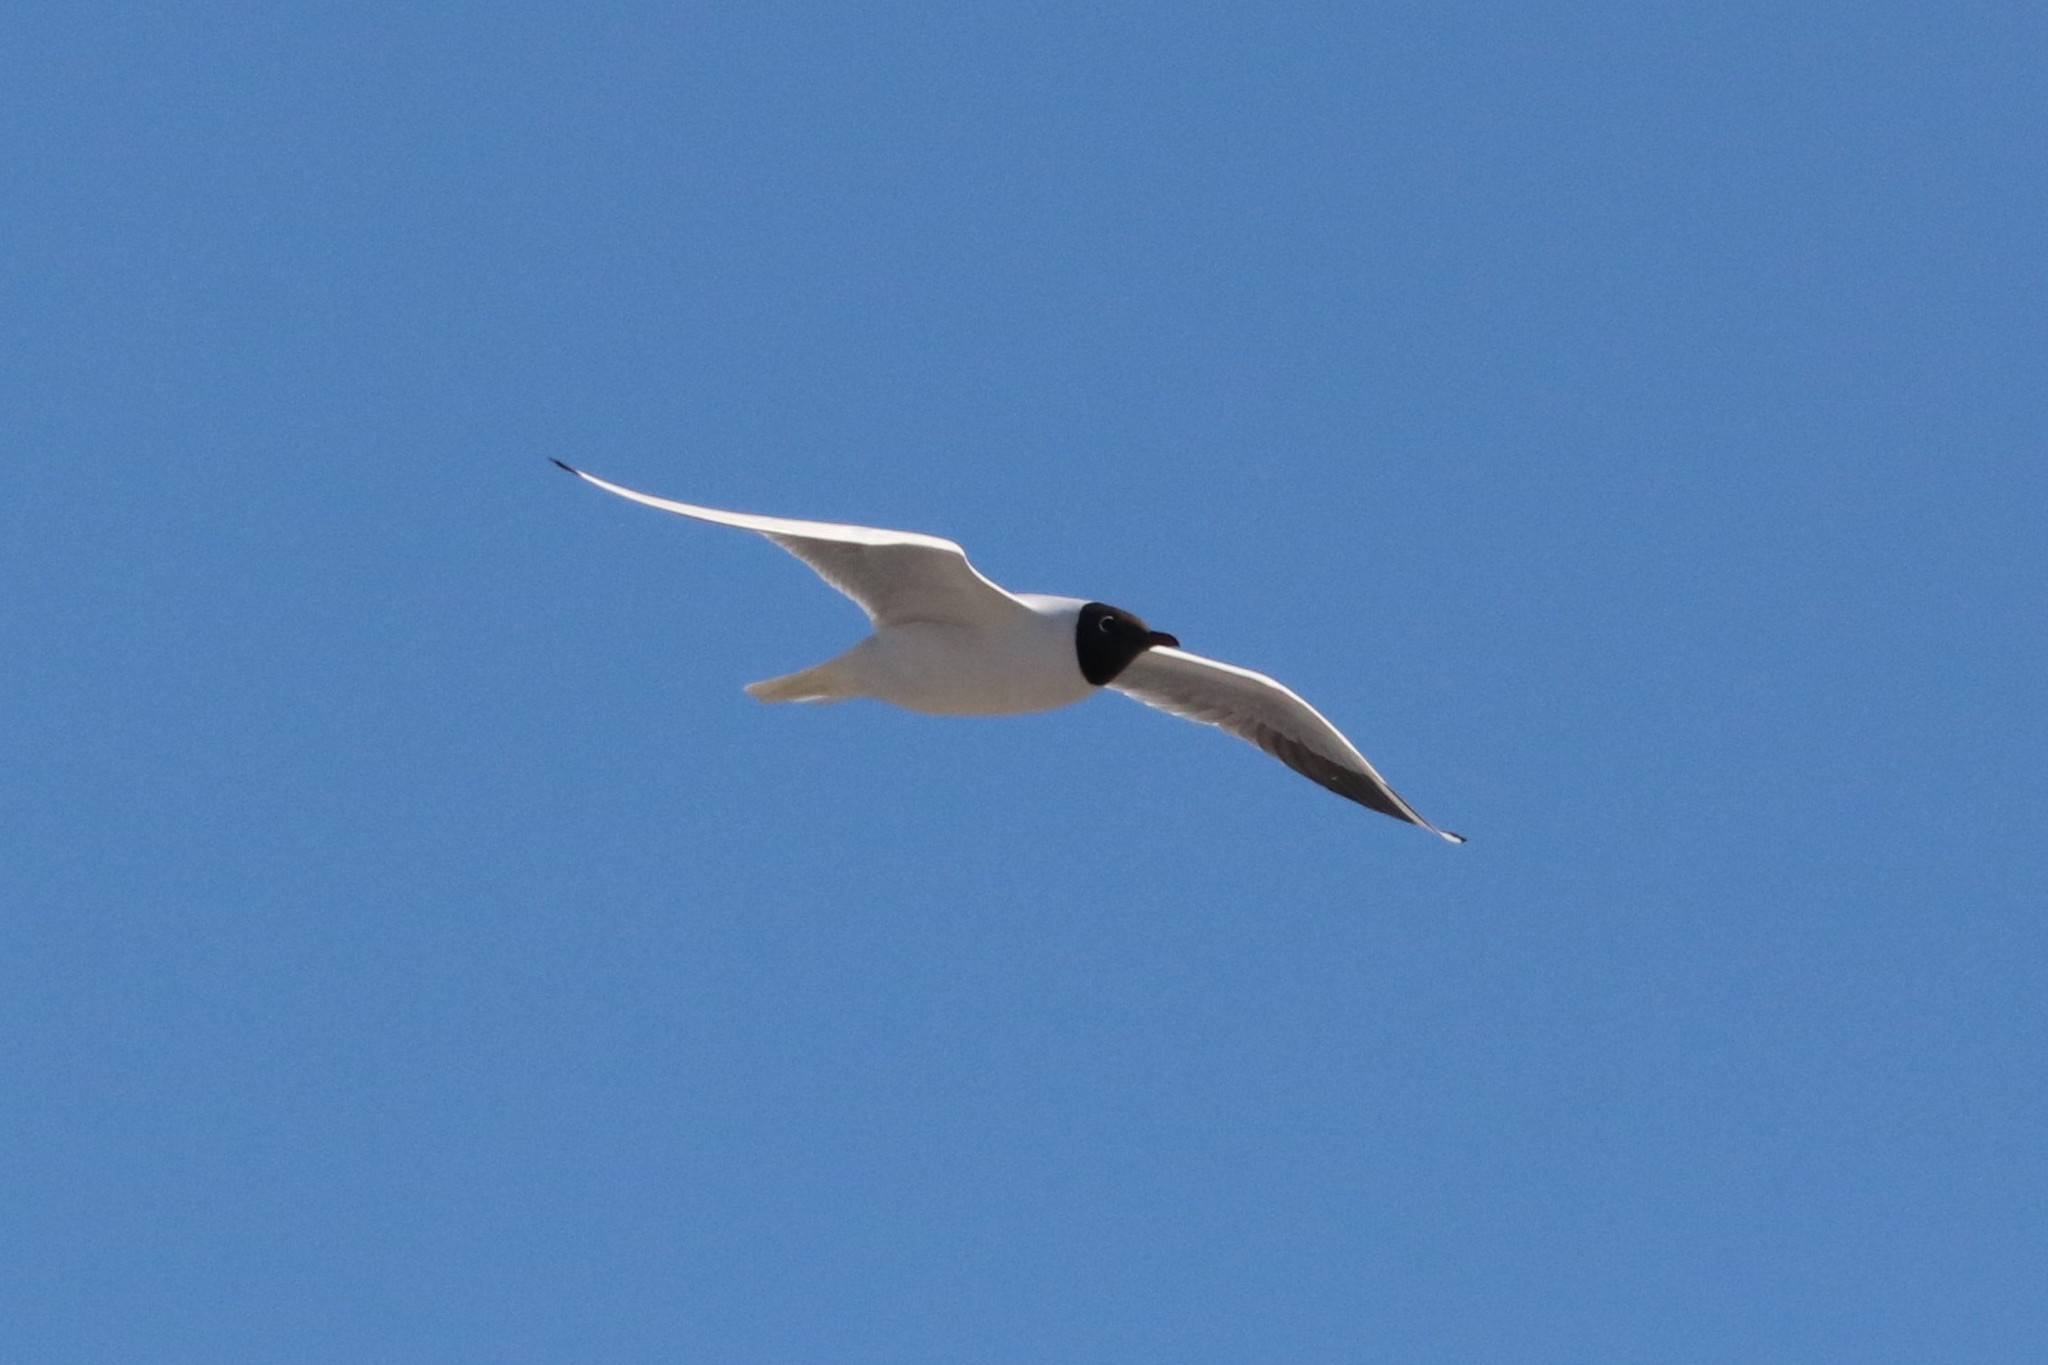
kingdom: Animalia
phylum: Chordata
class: Aves
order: Charadriiformes
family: Laridae
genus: Chroicocephalus
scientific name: Chroicocephalus ridibundus
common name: Black-headed gull
